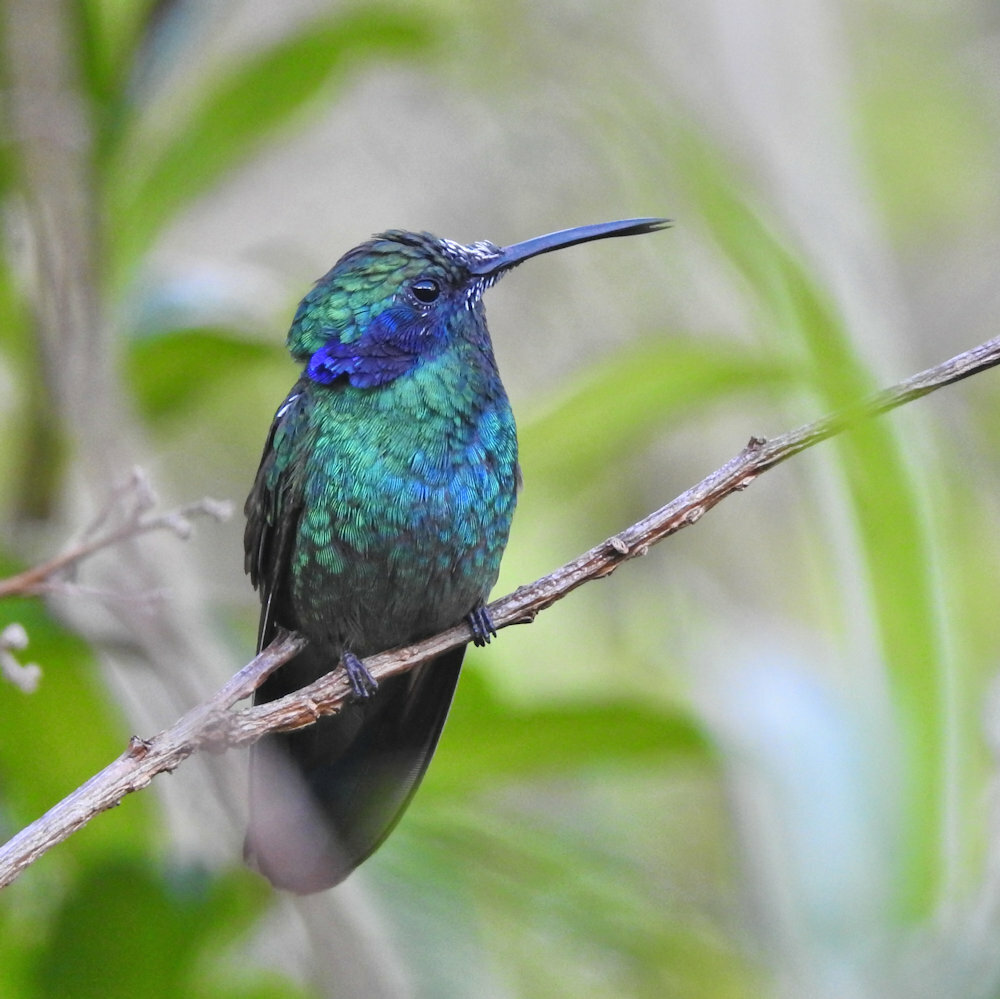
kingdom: Animalia
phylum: Chordata
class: Aves
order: Apodiformes
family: Trochilidae
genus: Colibri
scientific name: Colibri cyanotus
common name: Lesser violetear
